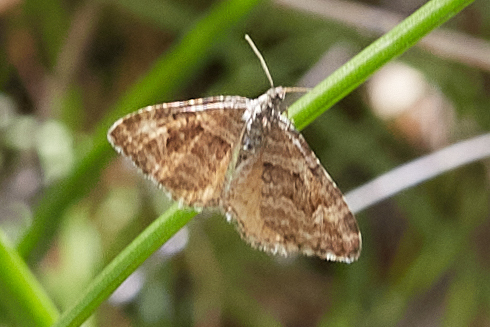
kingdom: Animalia
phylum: Arthropoda
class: Insecta
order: Lepidoptera
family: Geometridae
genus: Epirrhoe
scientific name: Epirrhoe plebeculata
